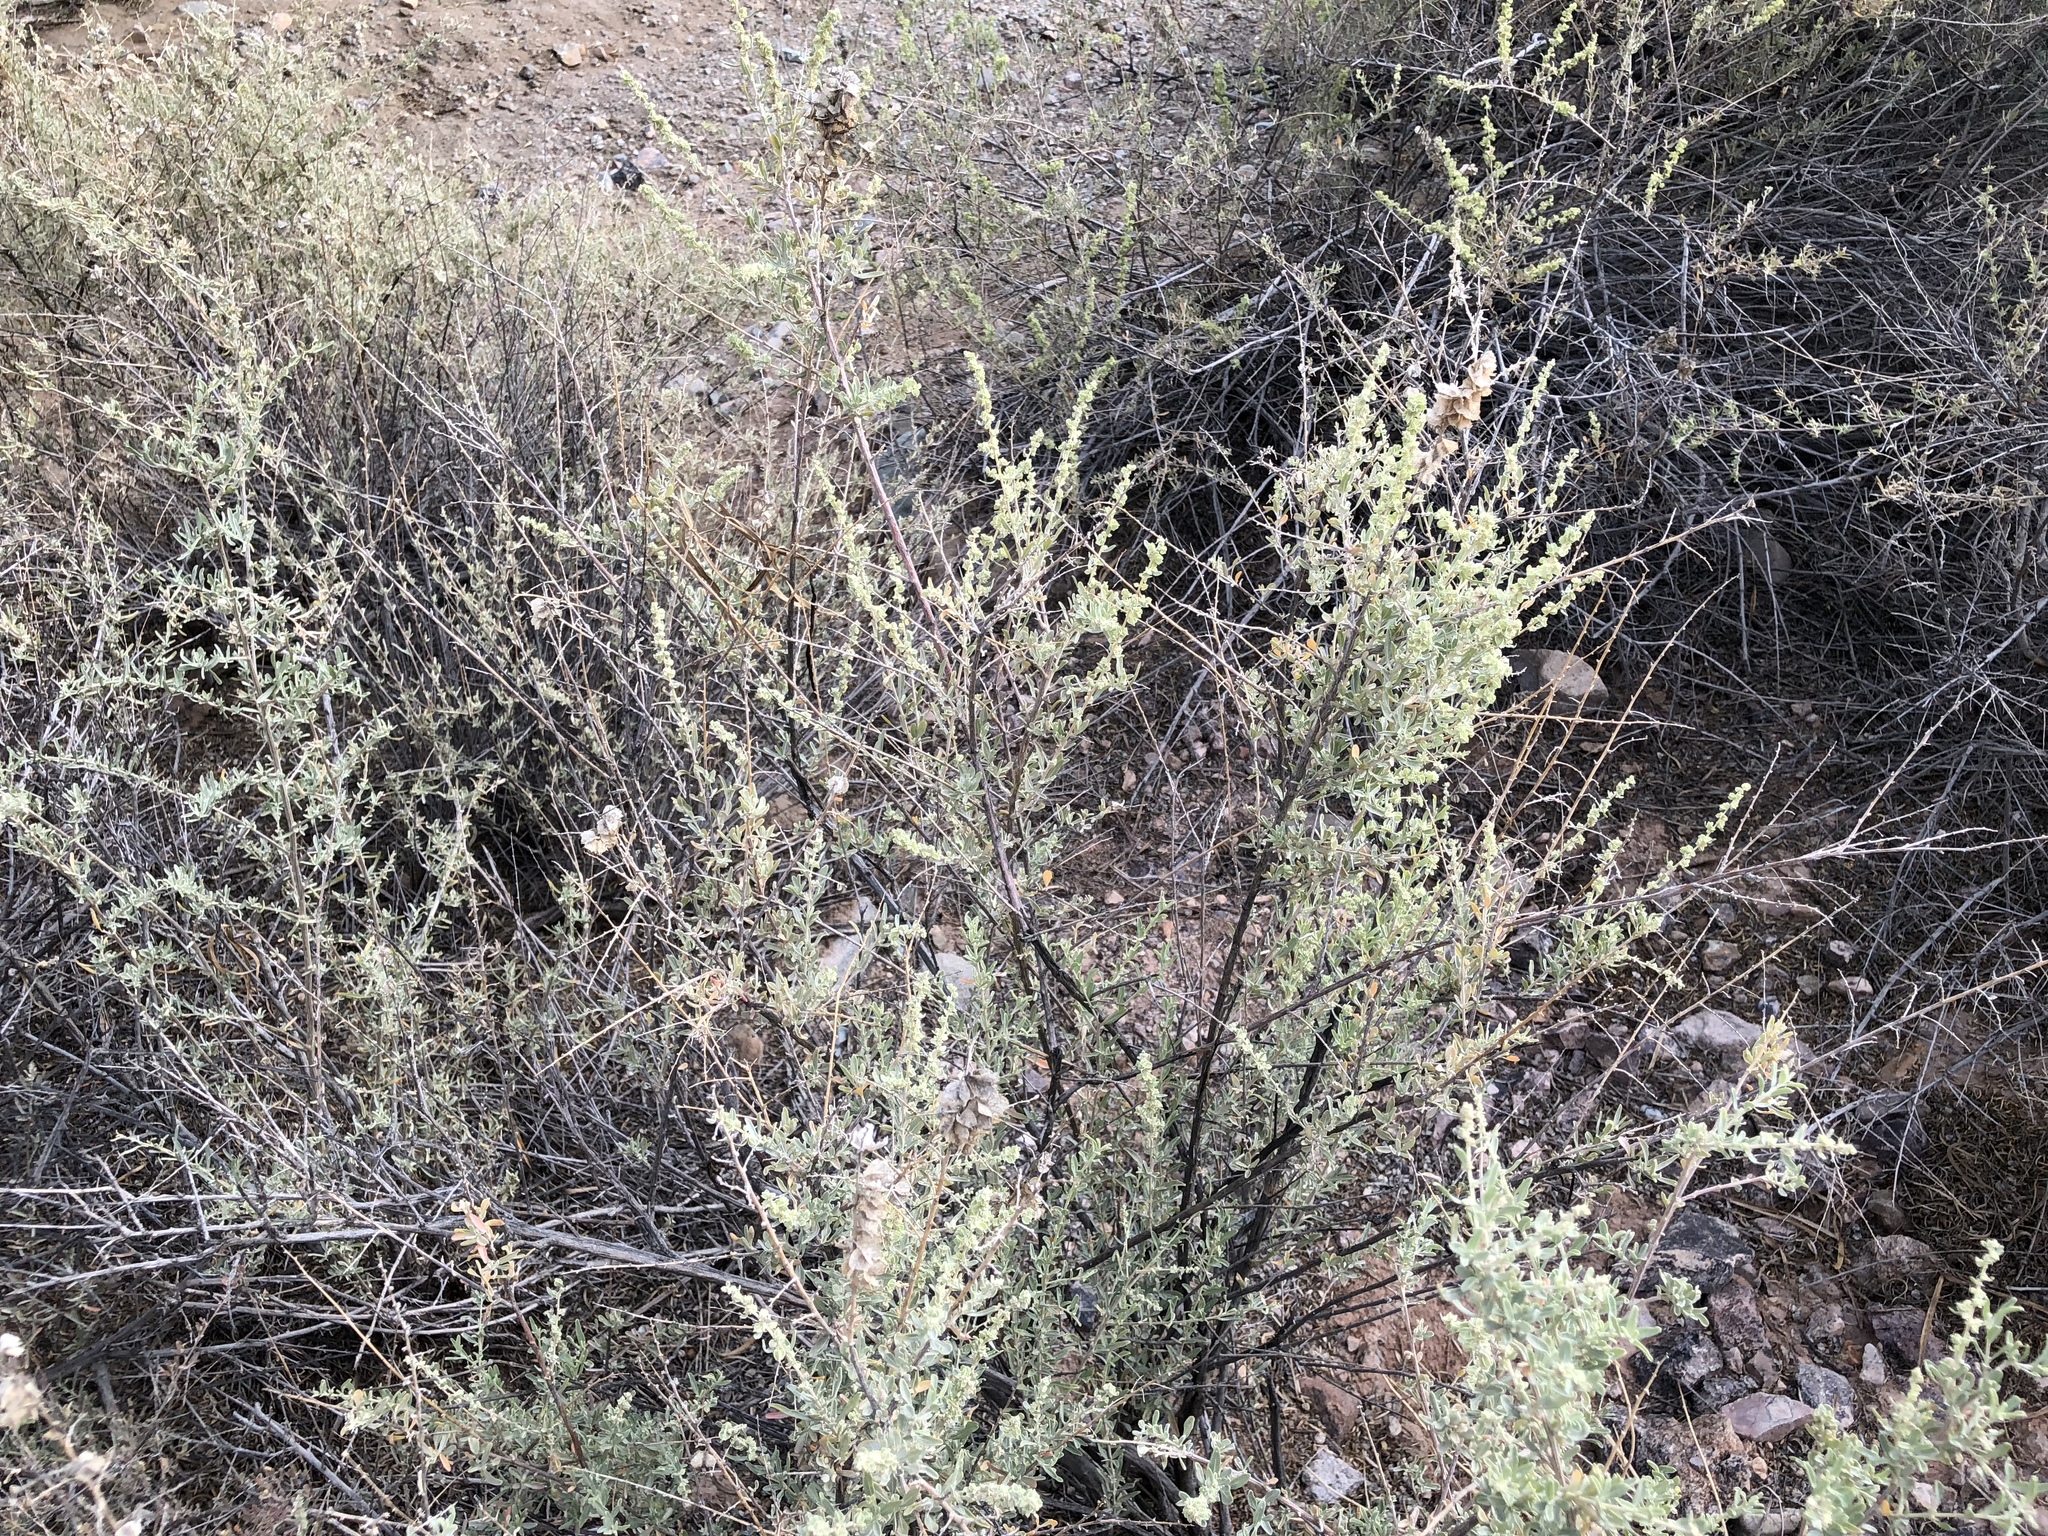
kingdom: Plantae
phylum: Tracheophyta
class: Magnoliopsida
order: Caryophyllales
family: Amaranthaceae
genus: Atriplex
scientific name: Atriplex canescens
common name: Four-wing saltbush
